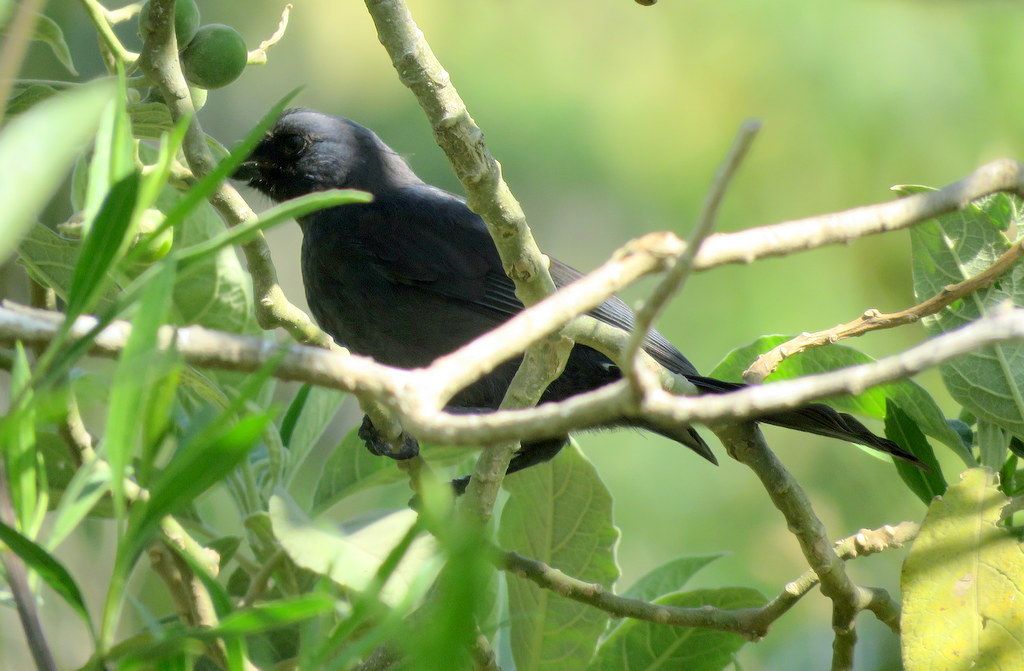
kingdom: Animalia
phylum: Chordata
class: Aves
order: Passeriformes
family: Thraupidae
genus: Stephanophorus
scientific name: Stephanophorus diadematus
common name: Diademed tanager
